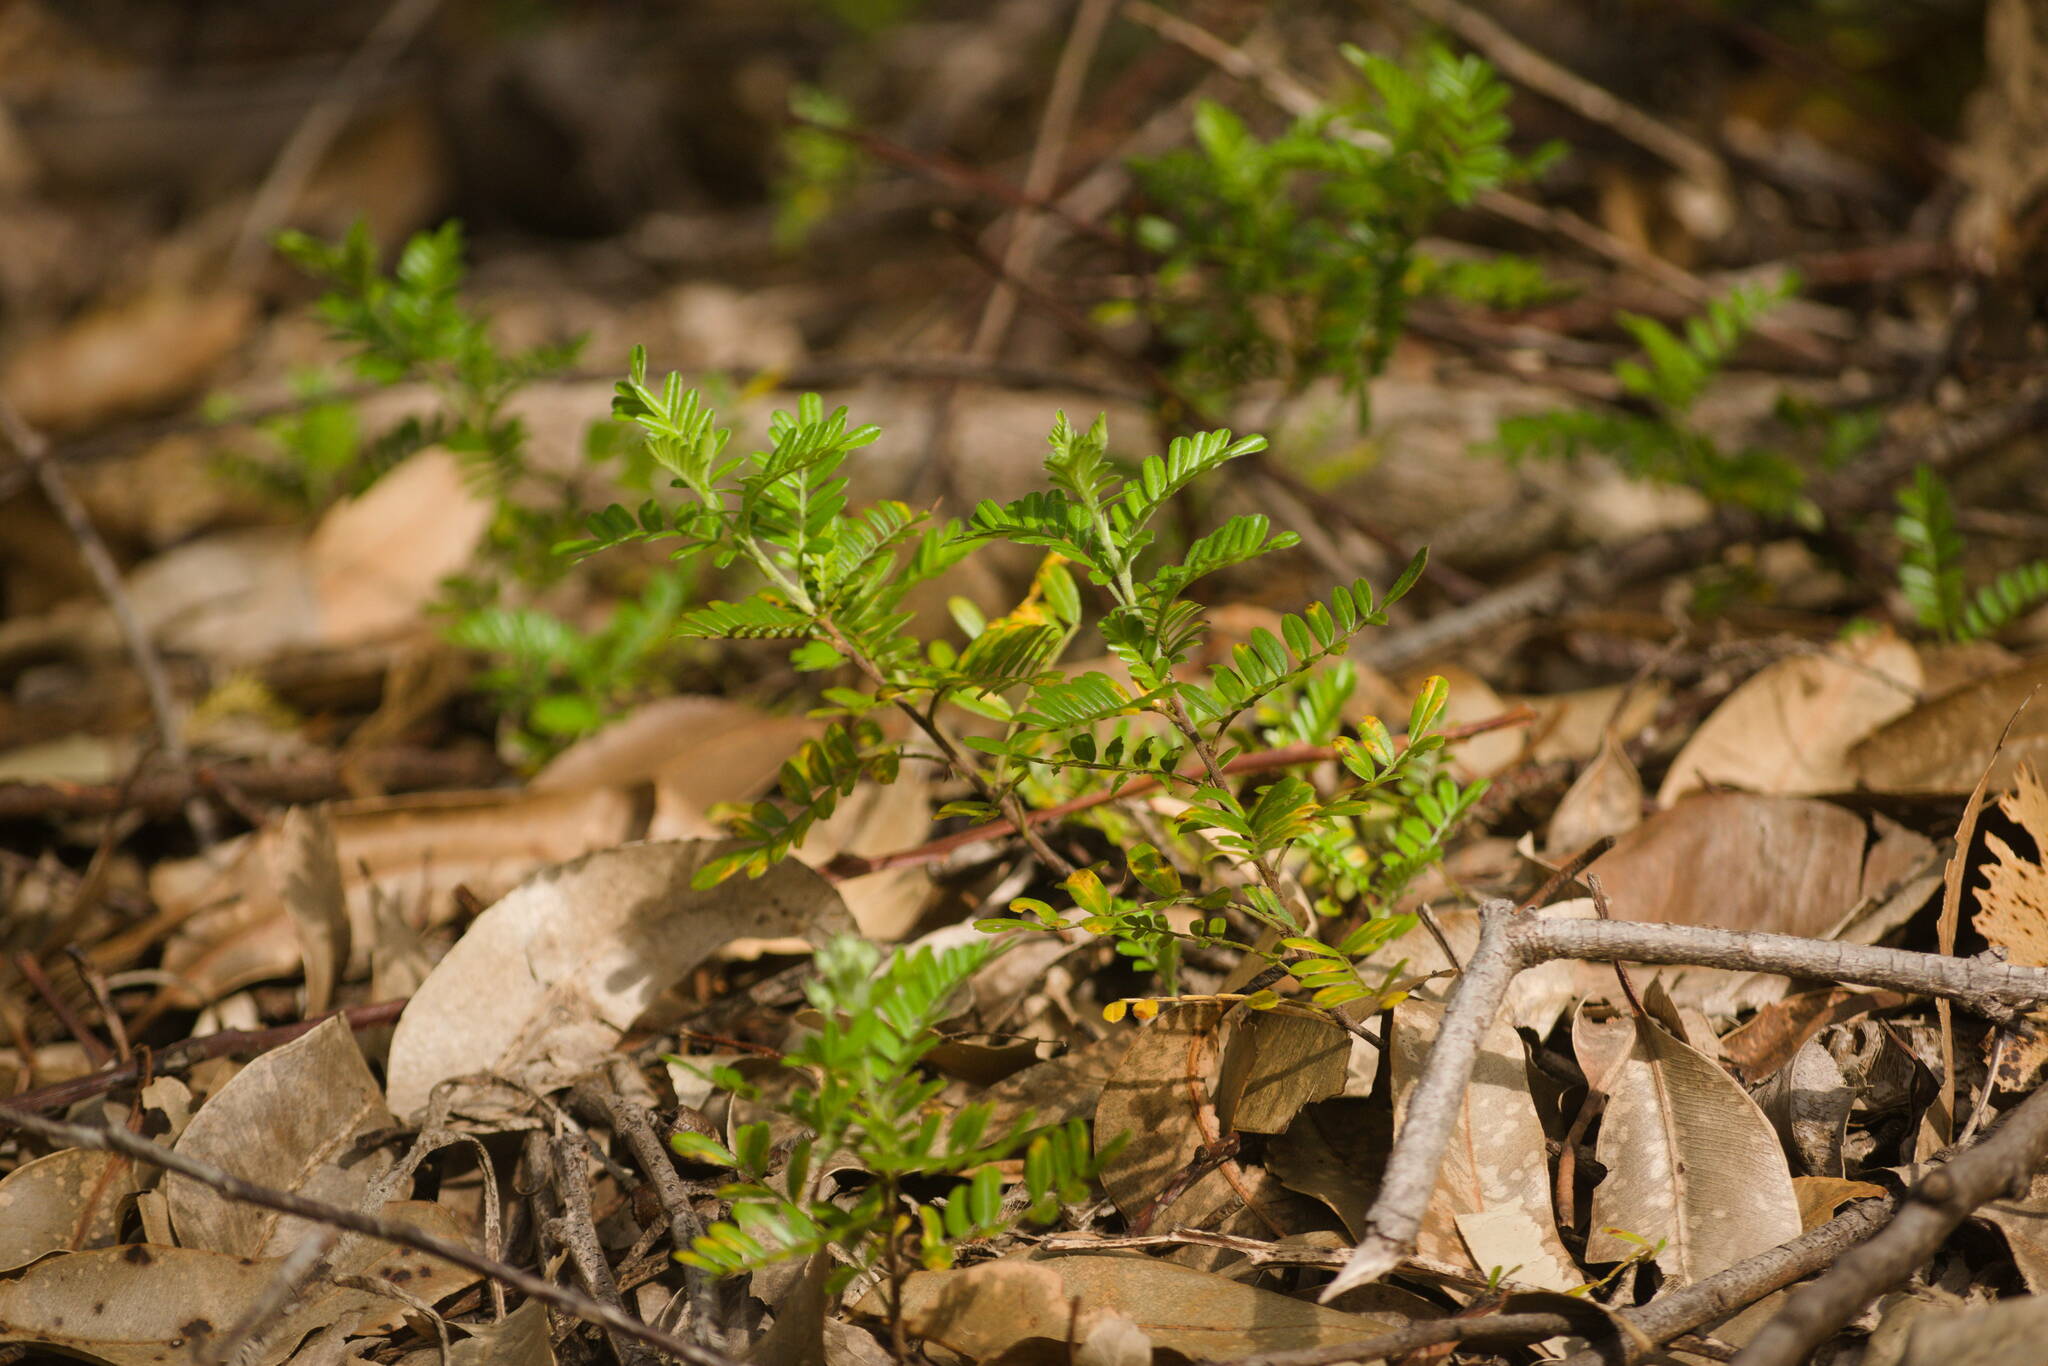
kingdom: Plantae
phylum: Tracheophyta
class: Magnoliopsida
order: Rosales
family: Rosaceae
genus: Osteomeles
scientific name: Osteomeles anthyllidifolia
